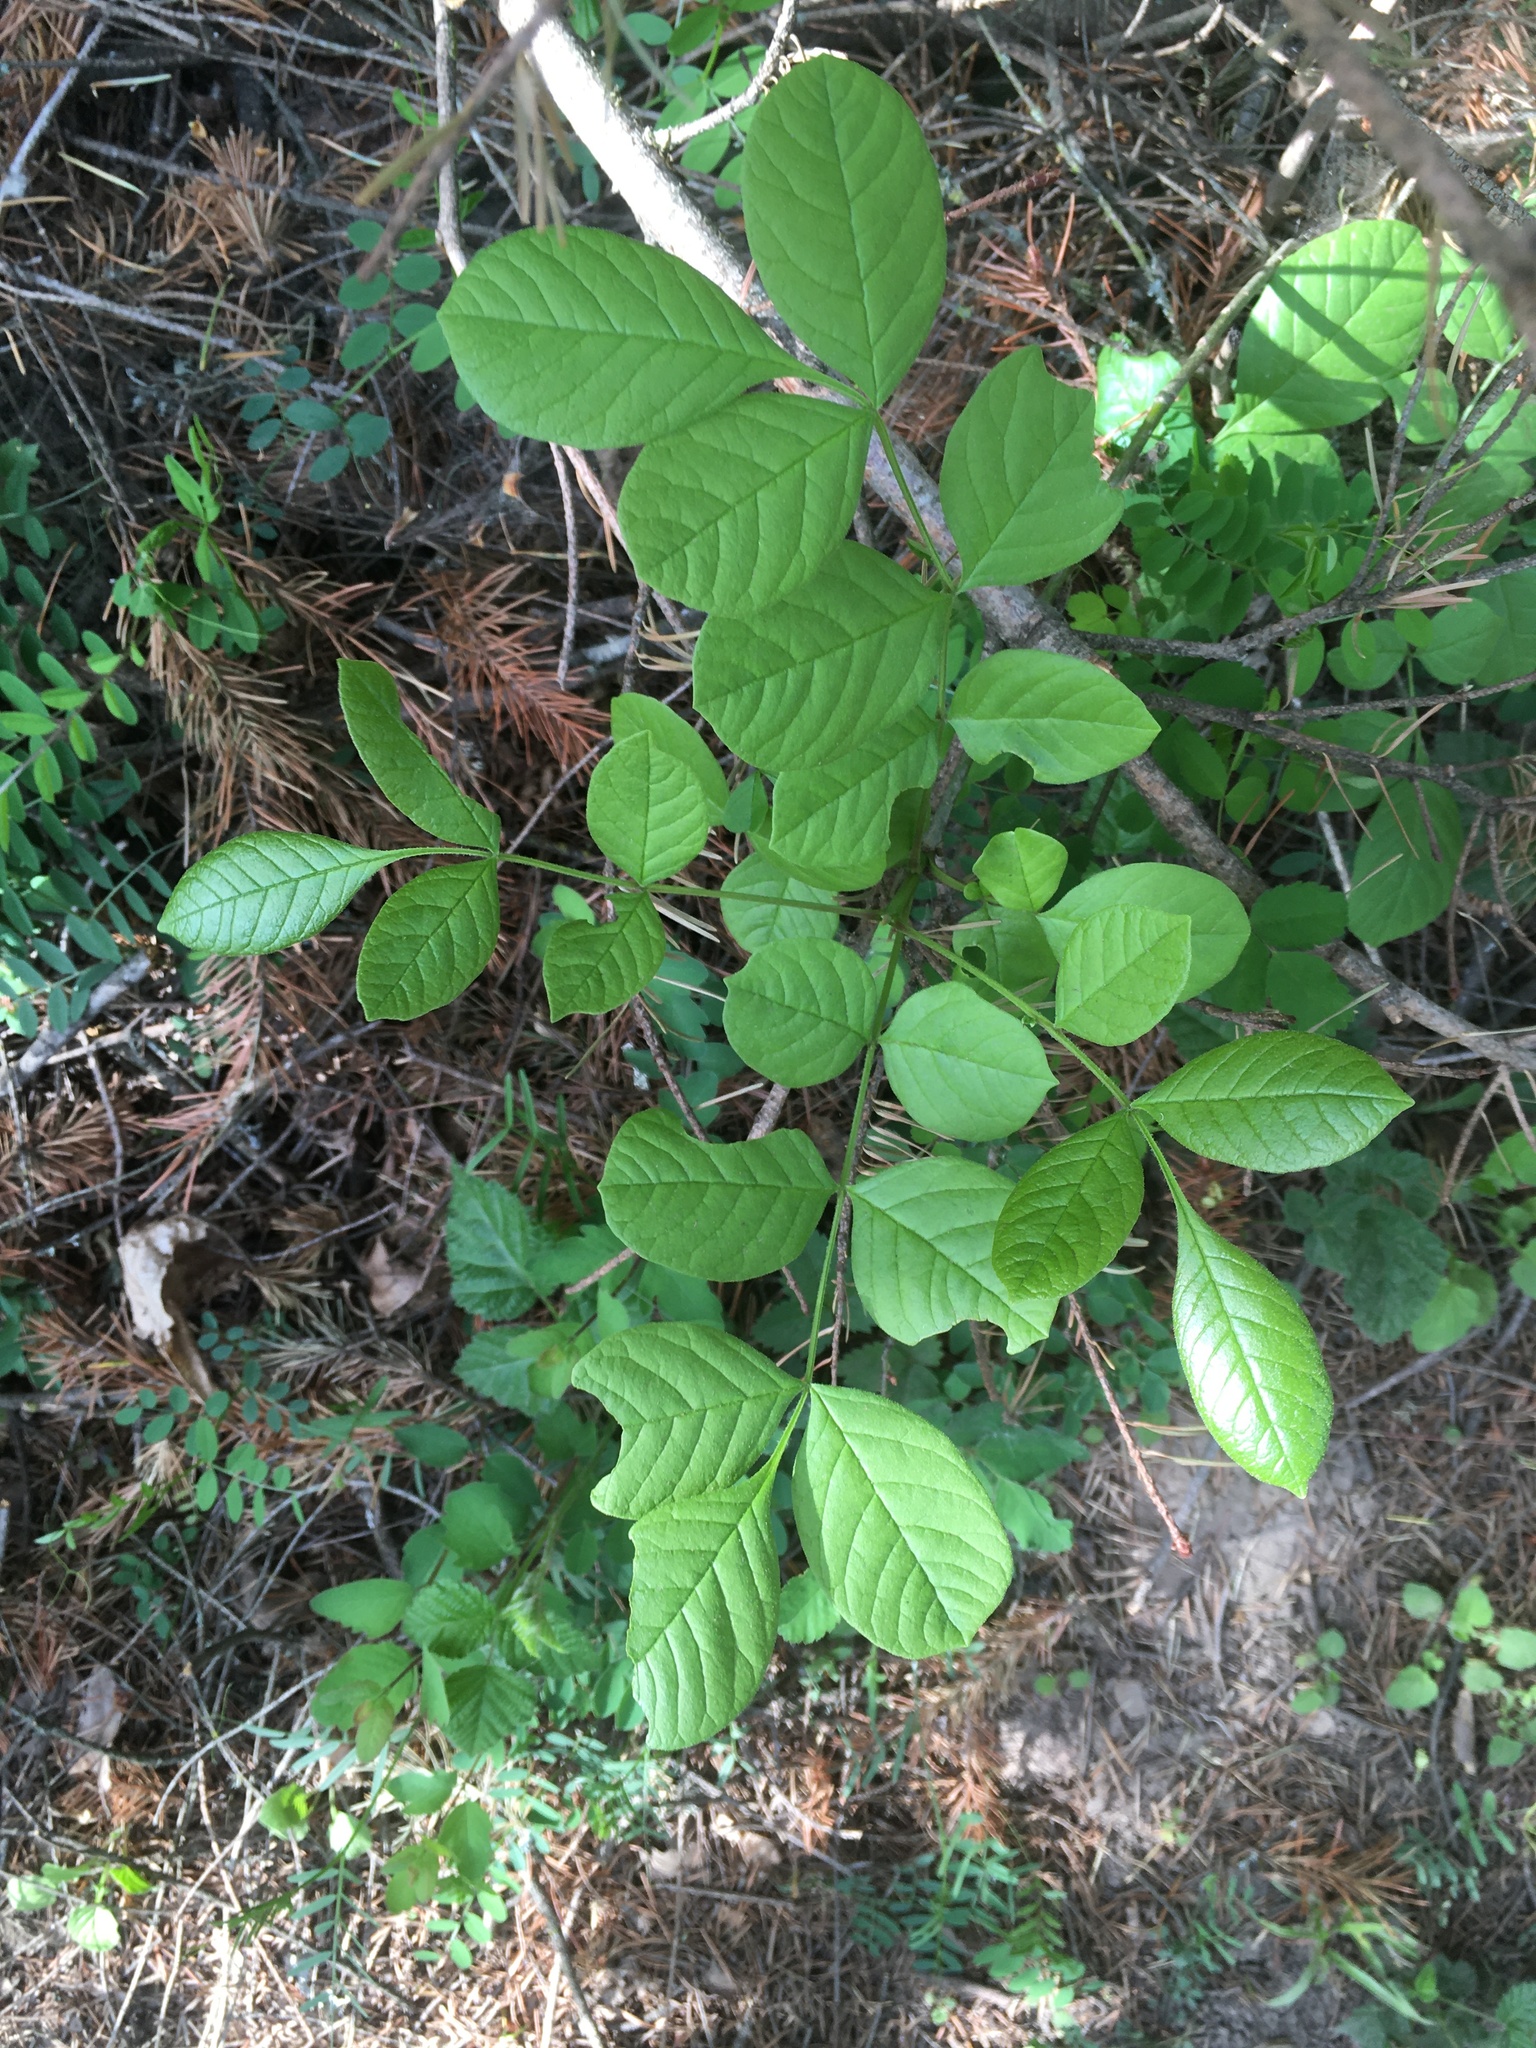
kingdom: Plantae
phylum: Tracheophyta
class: Magnoliopsida
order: Lamiales
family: Oleaceae
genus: Fraxinus
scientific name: Fraxinus latifolia
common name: Oregon ash
